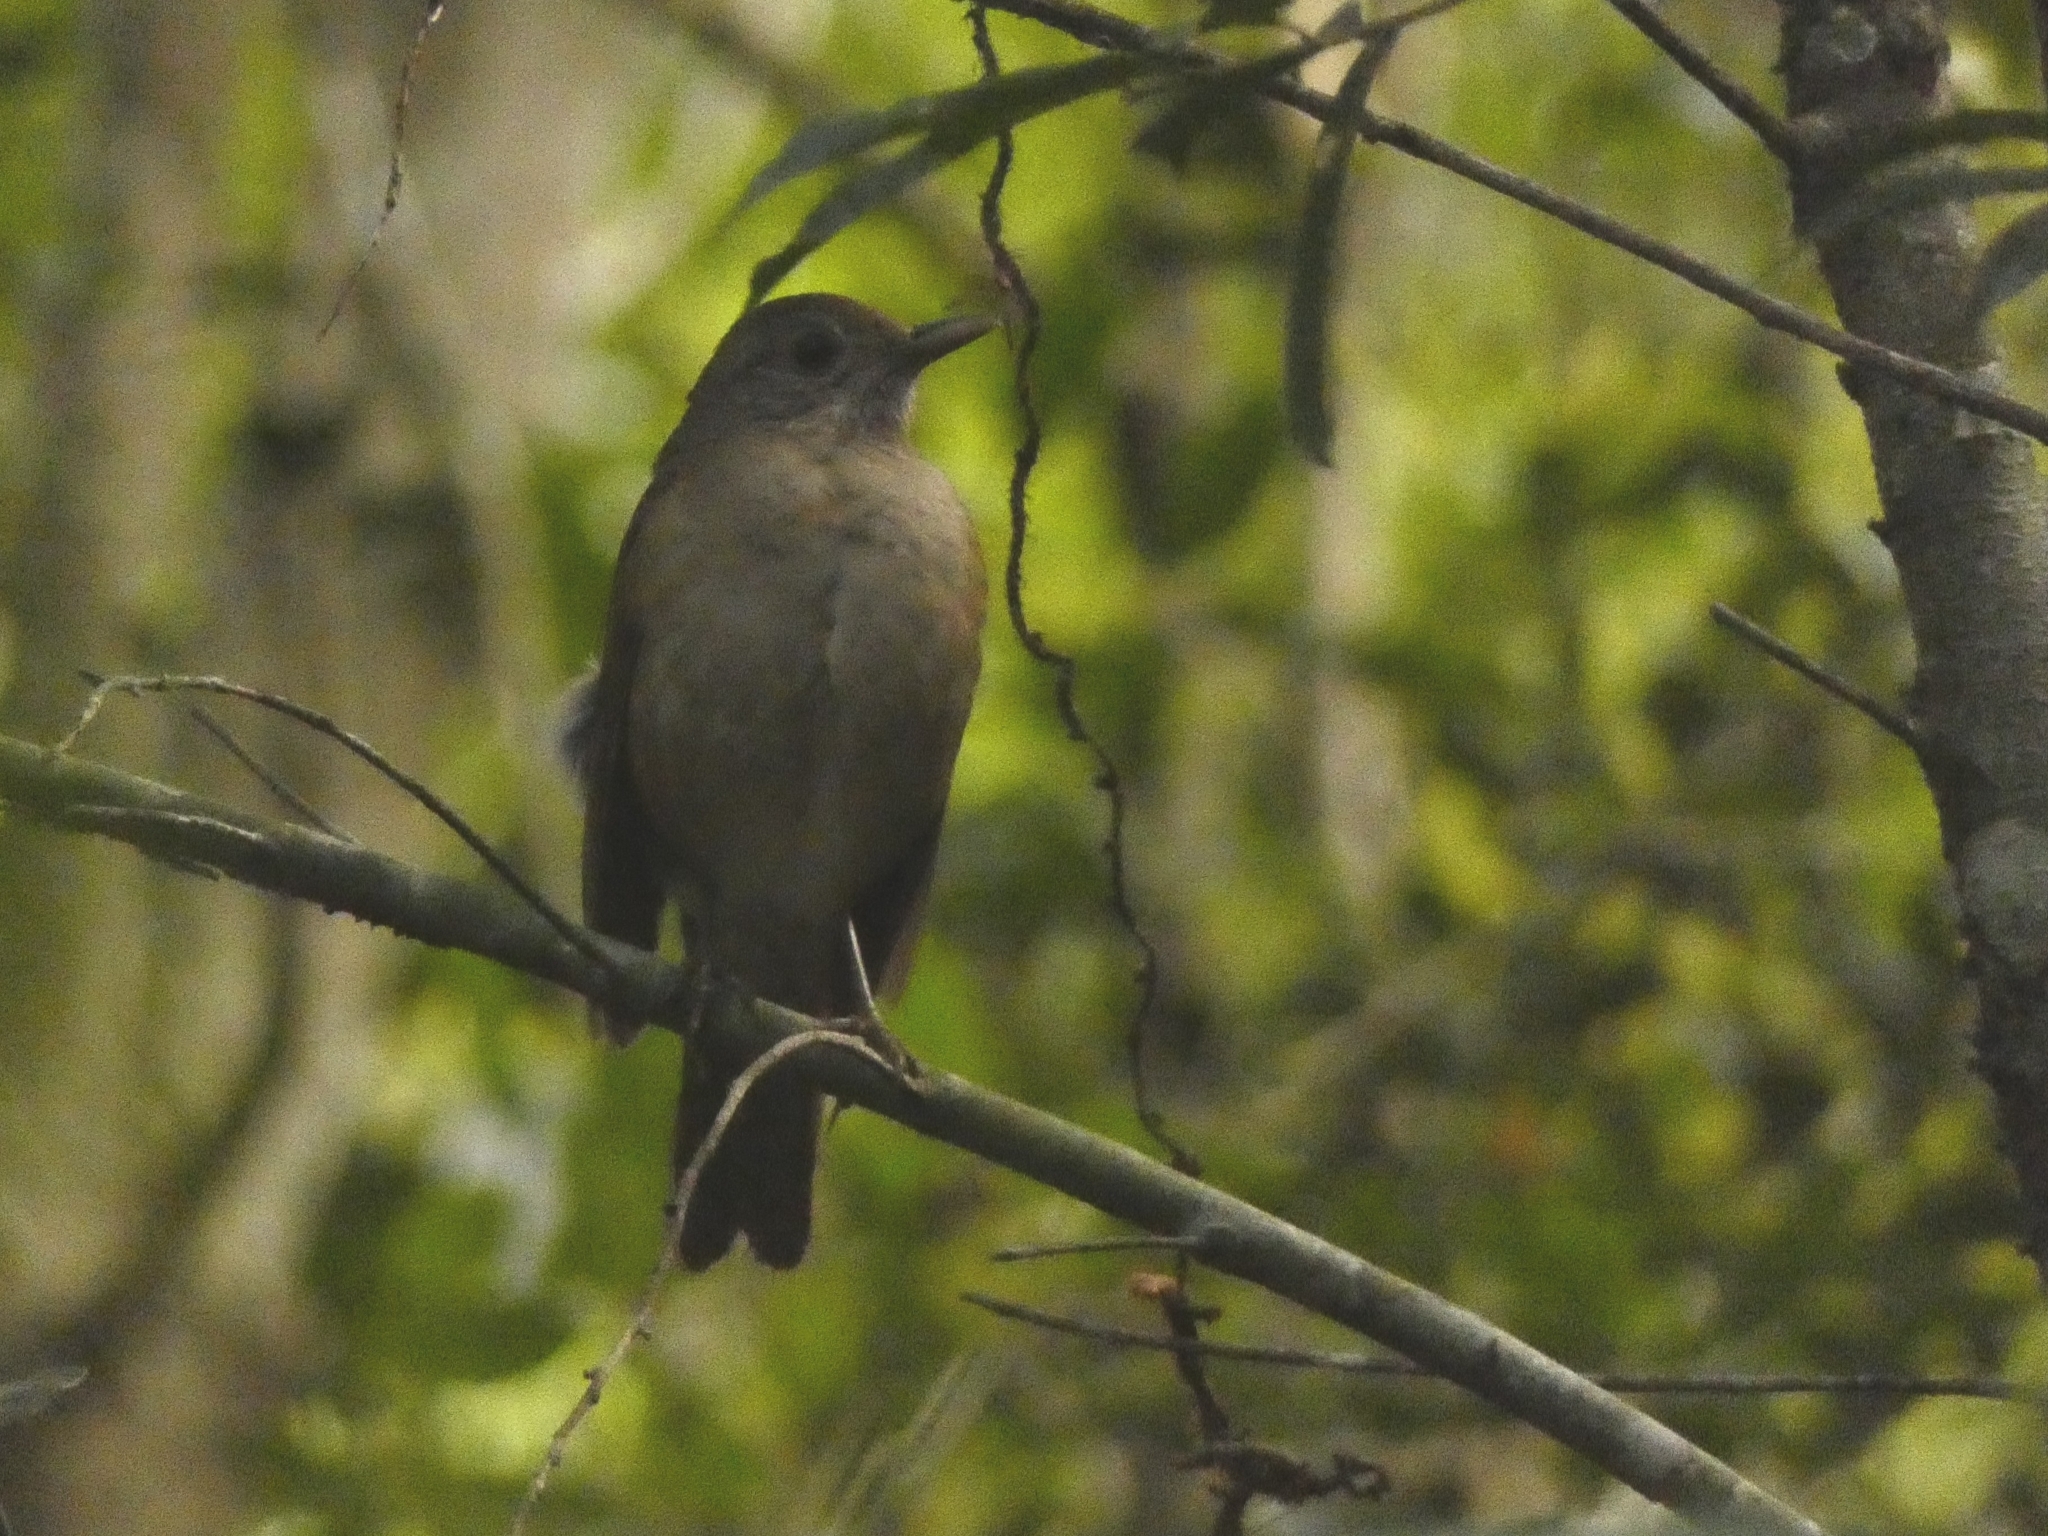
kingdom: Animalia
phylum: Chordata
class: Aves
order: Passeriformes
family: Turdidae
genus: Turdus
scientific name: Turdus leucomelas
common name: Pale-breasted thrush
